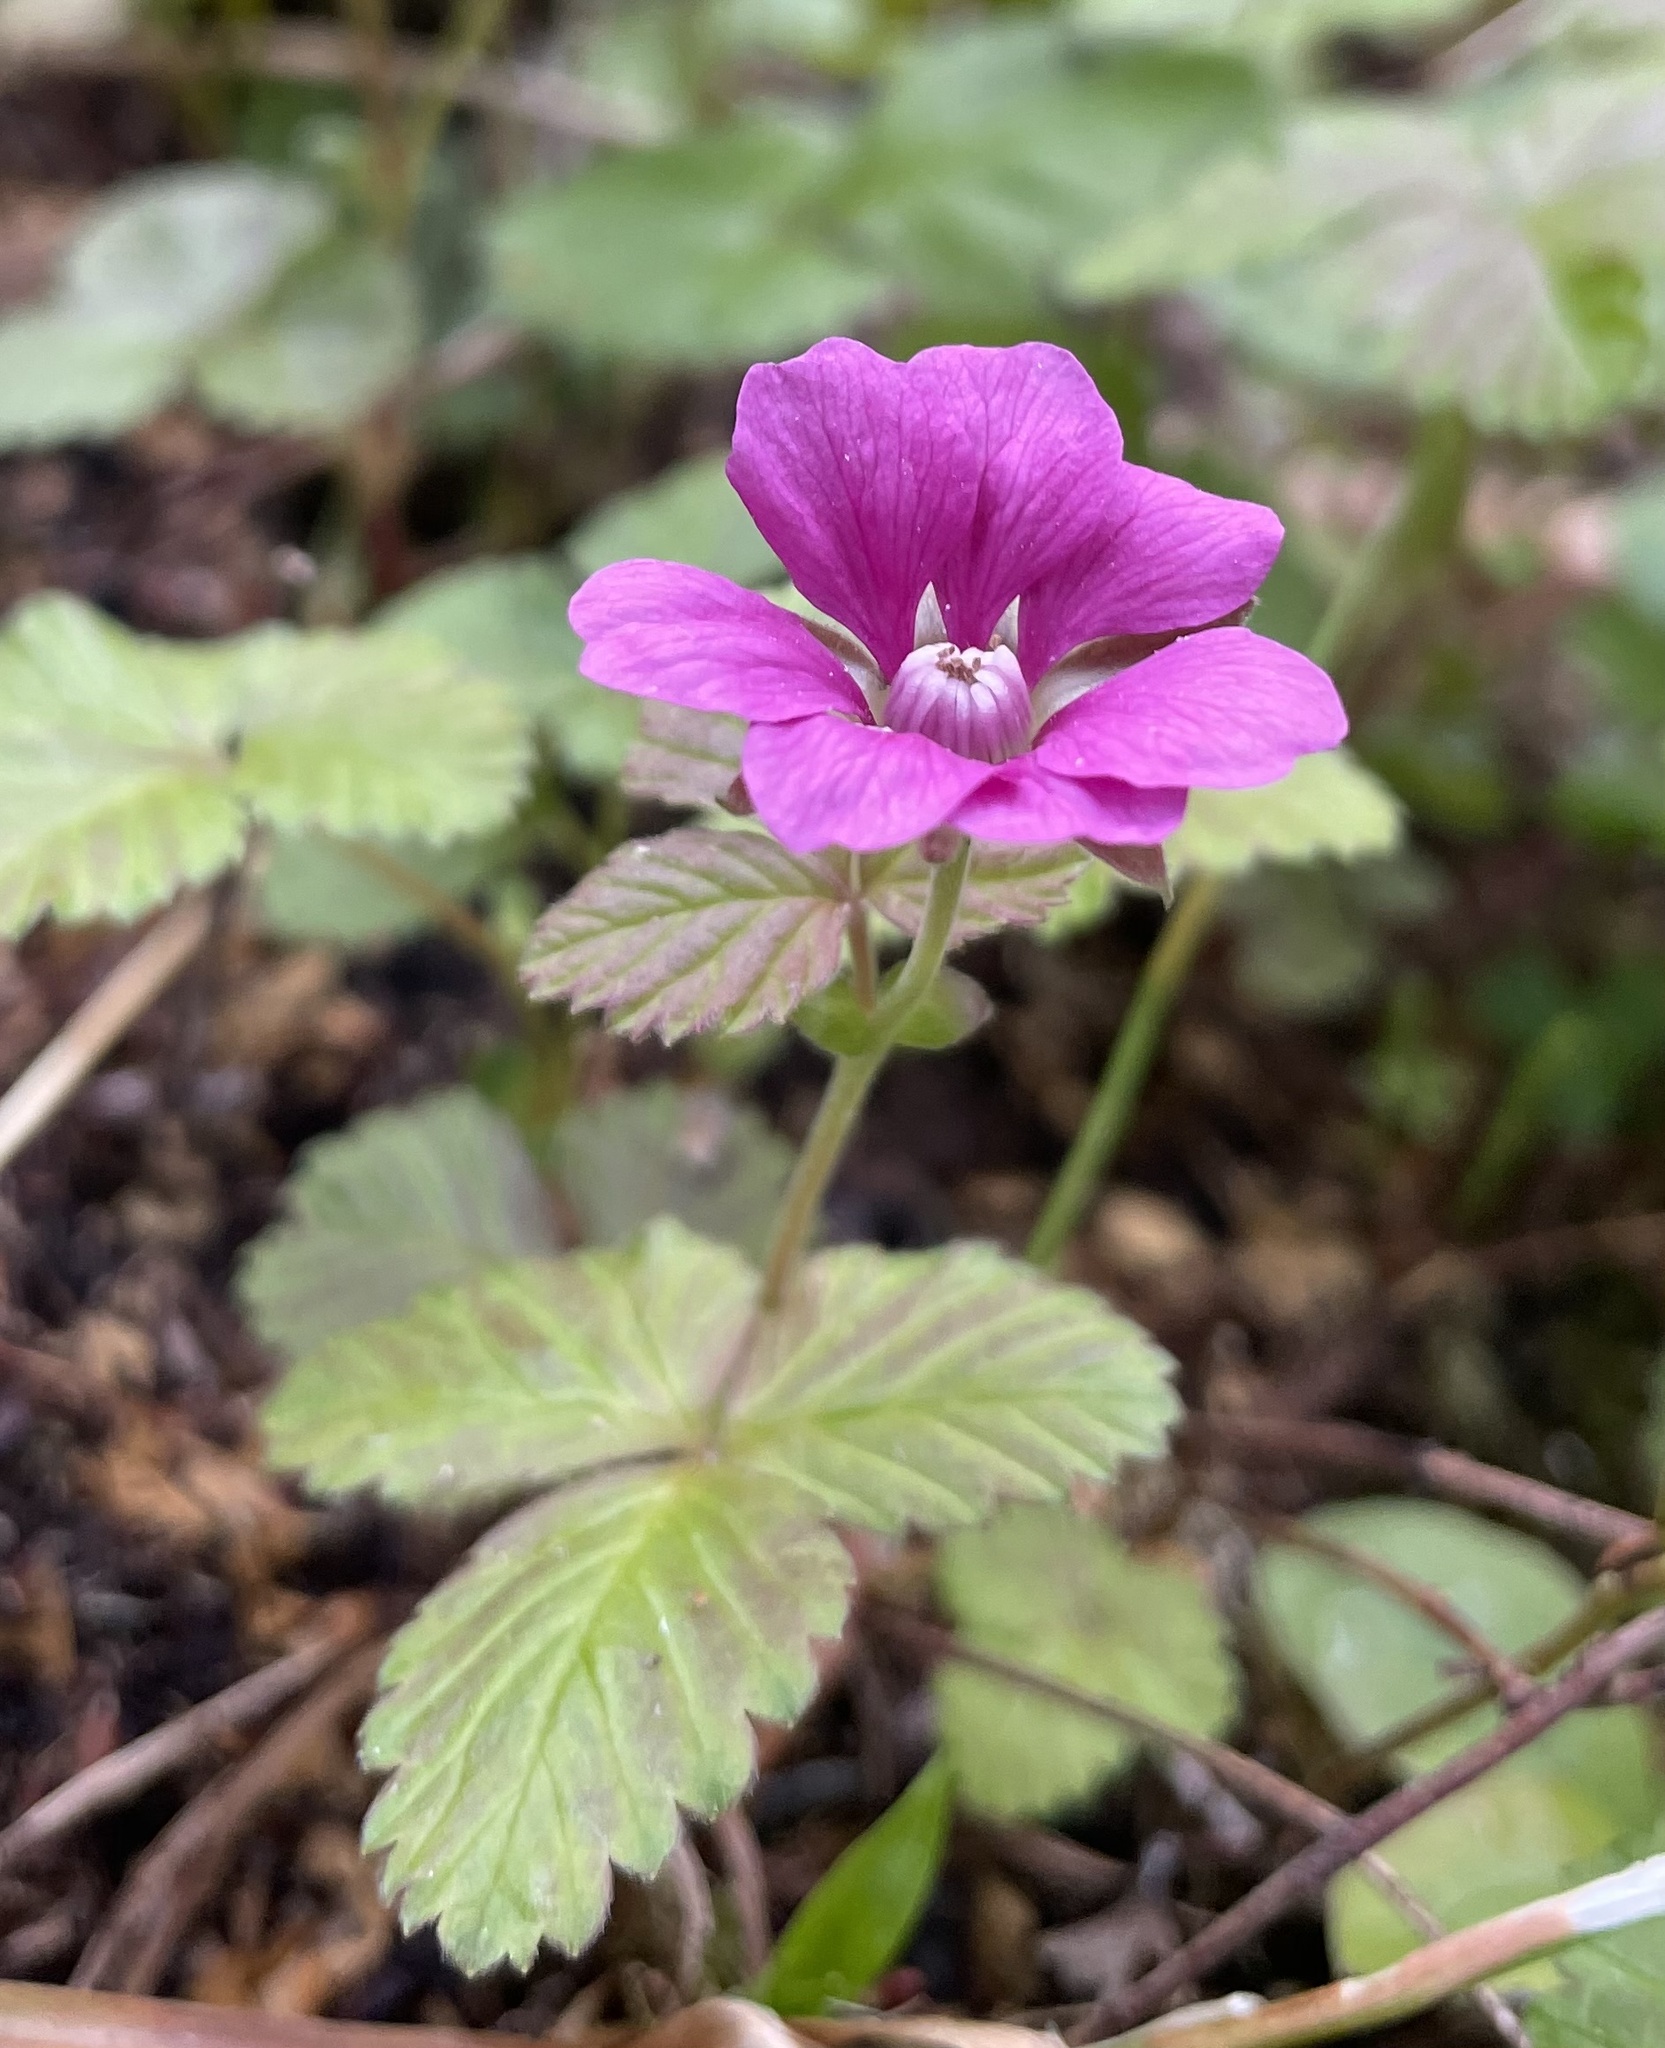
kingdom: Plantae
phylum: Tracheophyta
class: Magnoliopsida
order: Rosales
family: Rosaceae
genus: Rubus
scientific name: Rubus arcticus
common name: Arctic bramble
